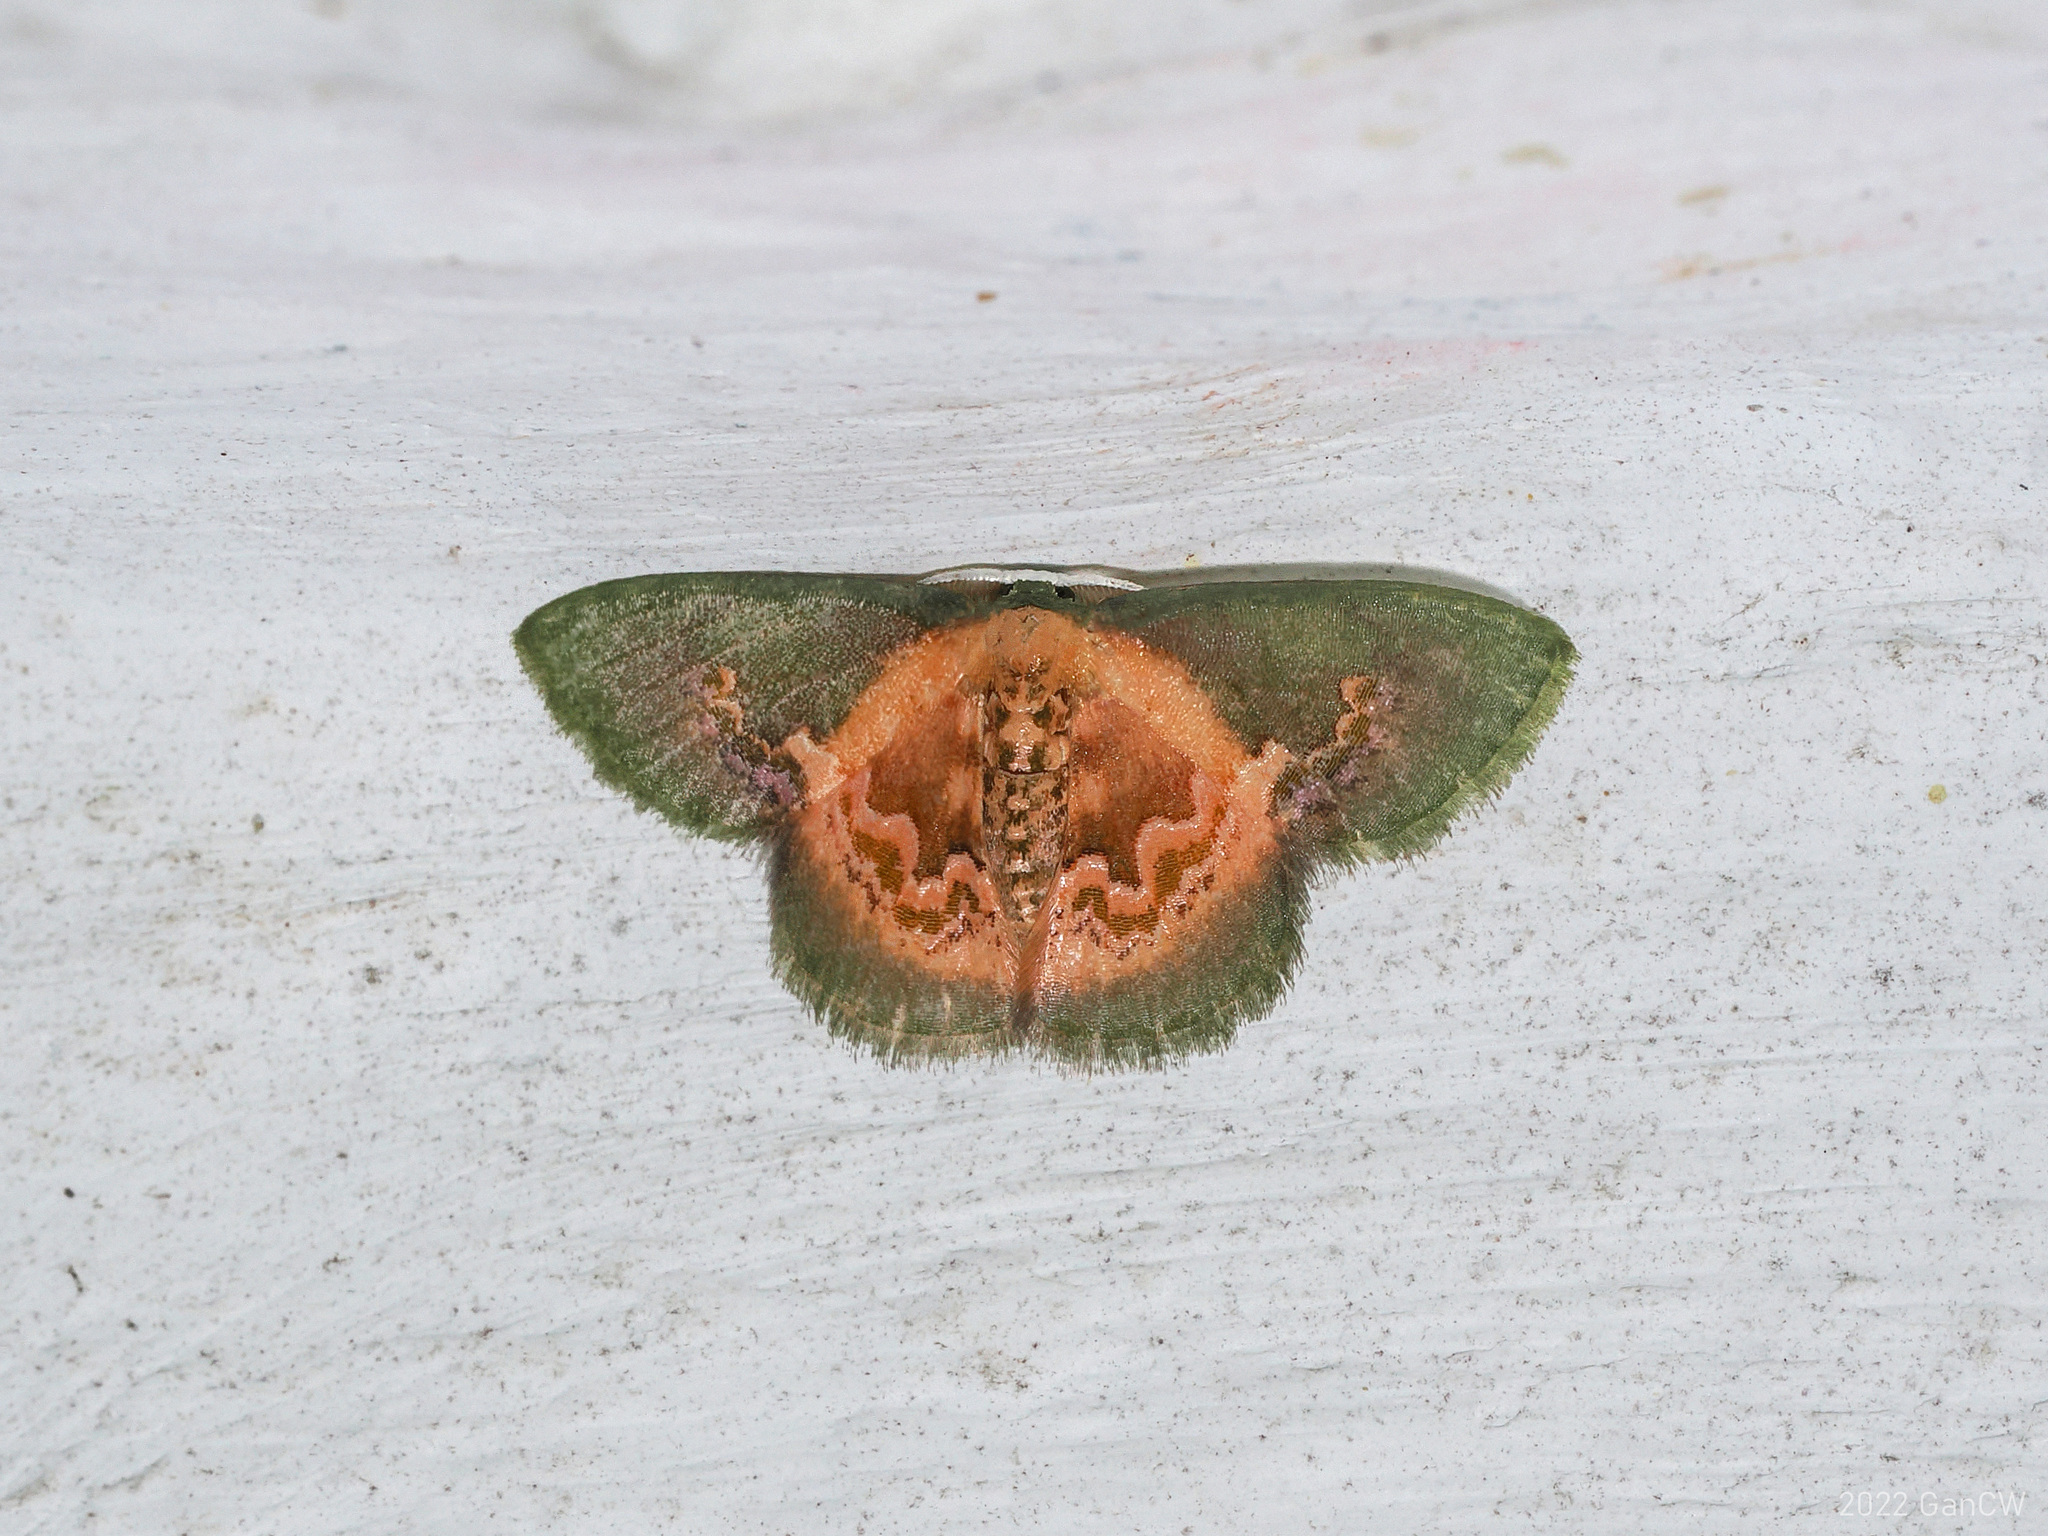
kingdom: Animalia
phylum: Arthropoda
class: Insecta
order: Lepidoptera
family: Geometridae
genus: Rhanidopsis
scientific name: Rhanidopsis alleni
